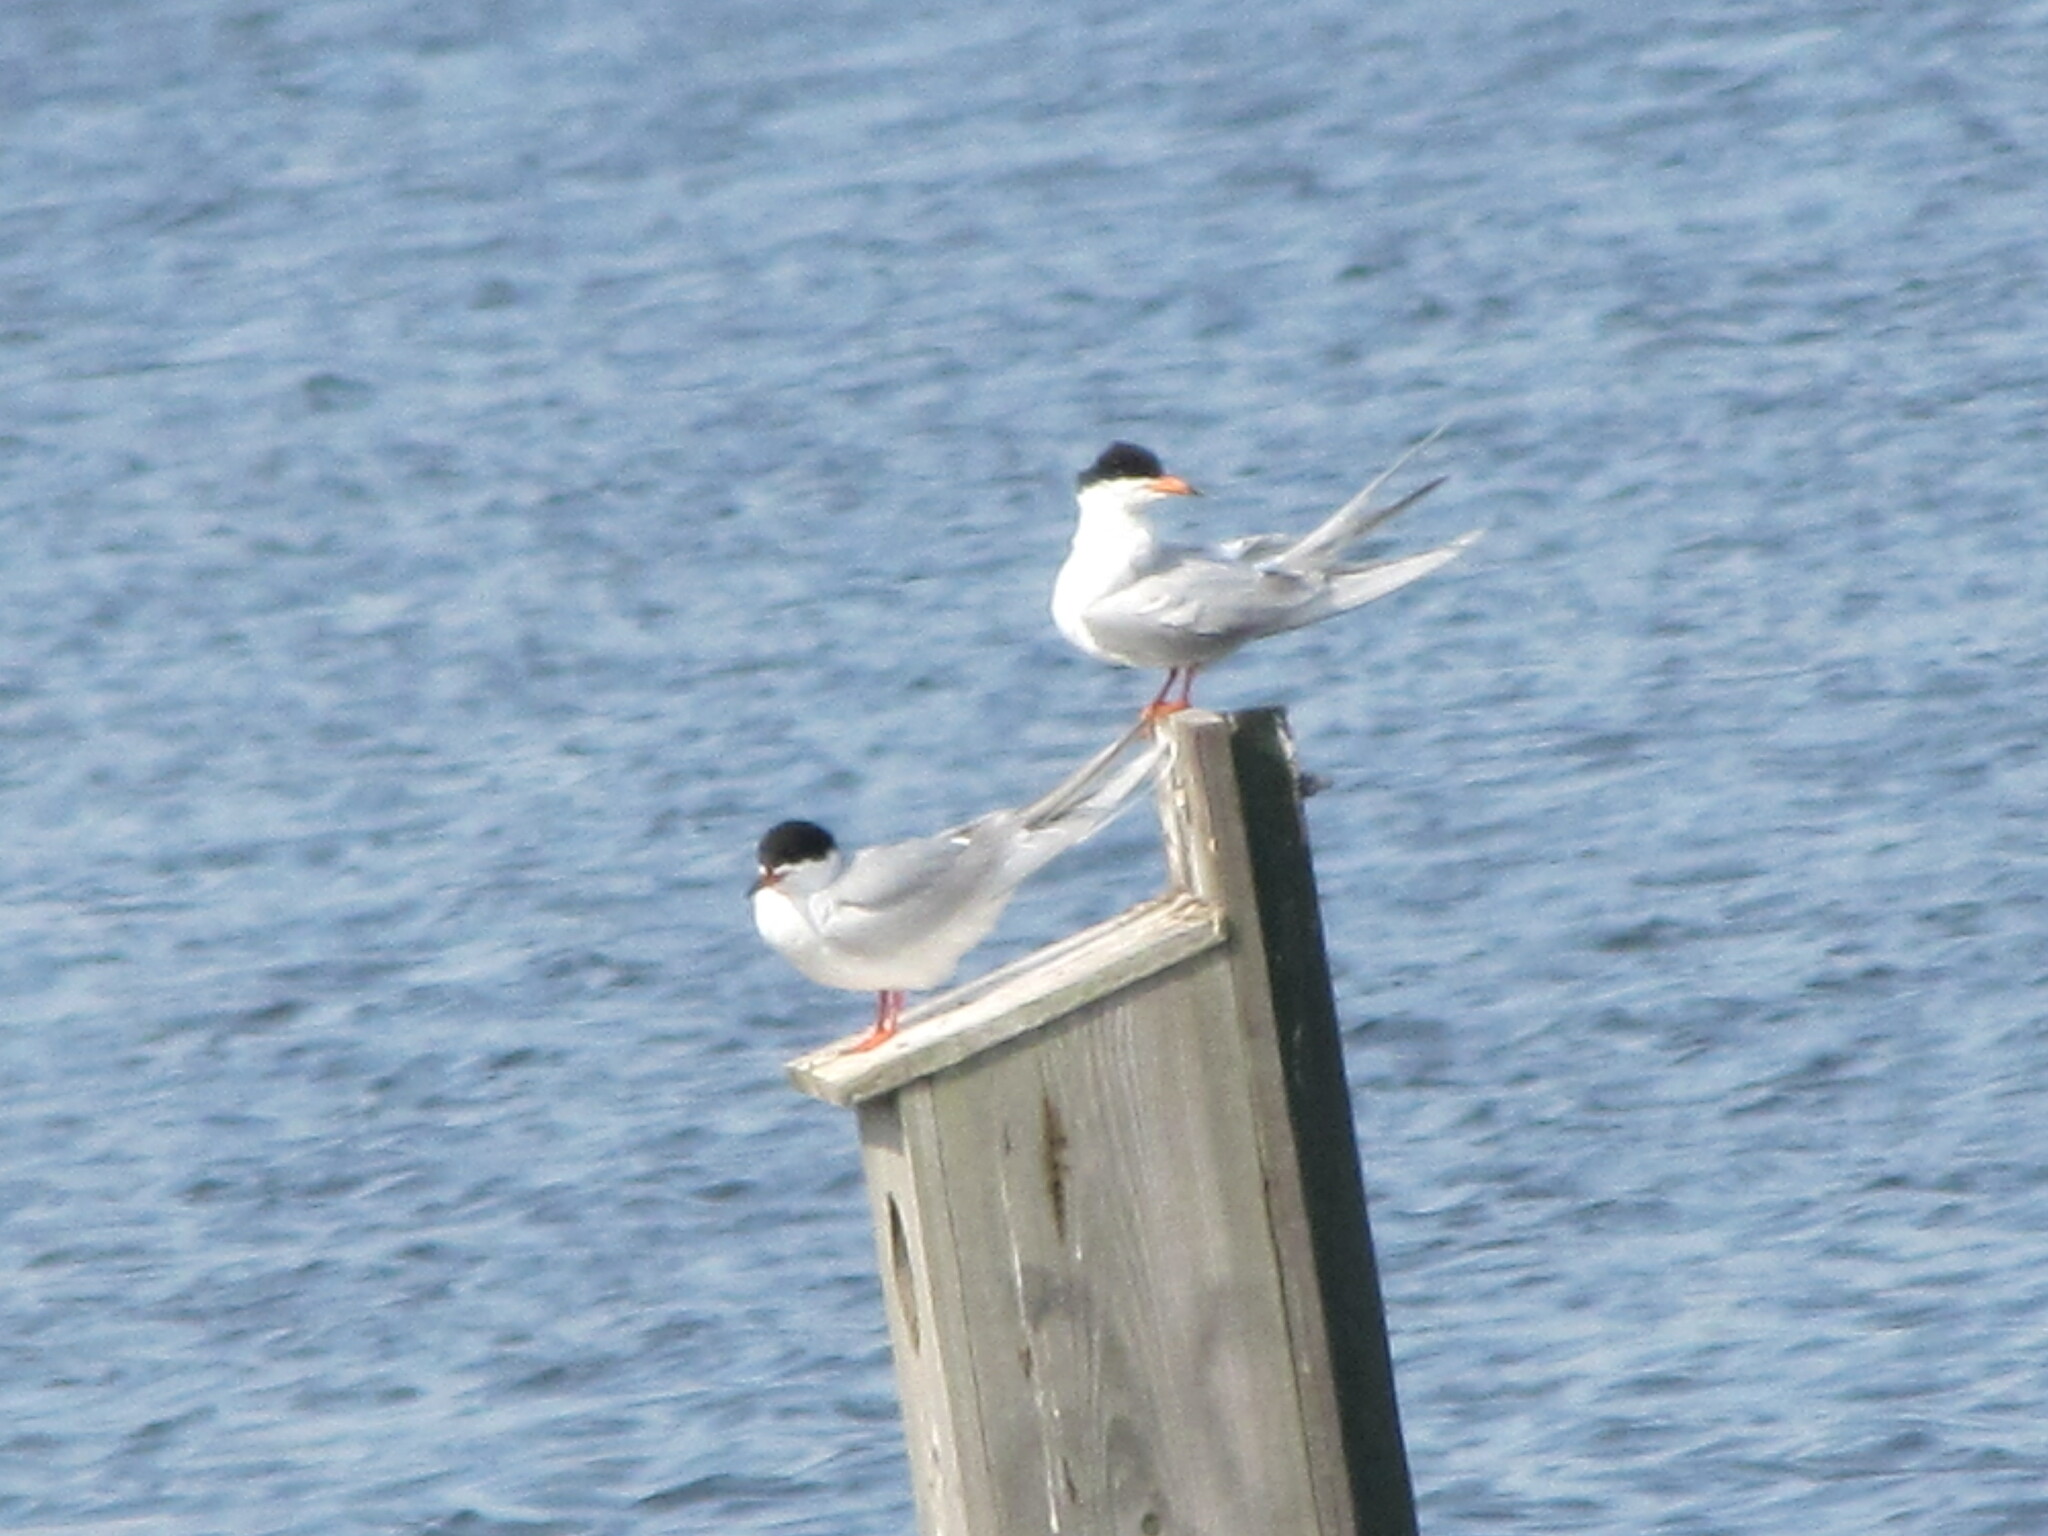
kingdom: Animalia
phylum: Chordata
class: Aves
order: Charadriiformes
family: Laridae
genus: Sterna
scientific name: Sterna forsteri
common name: Forster's tern
